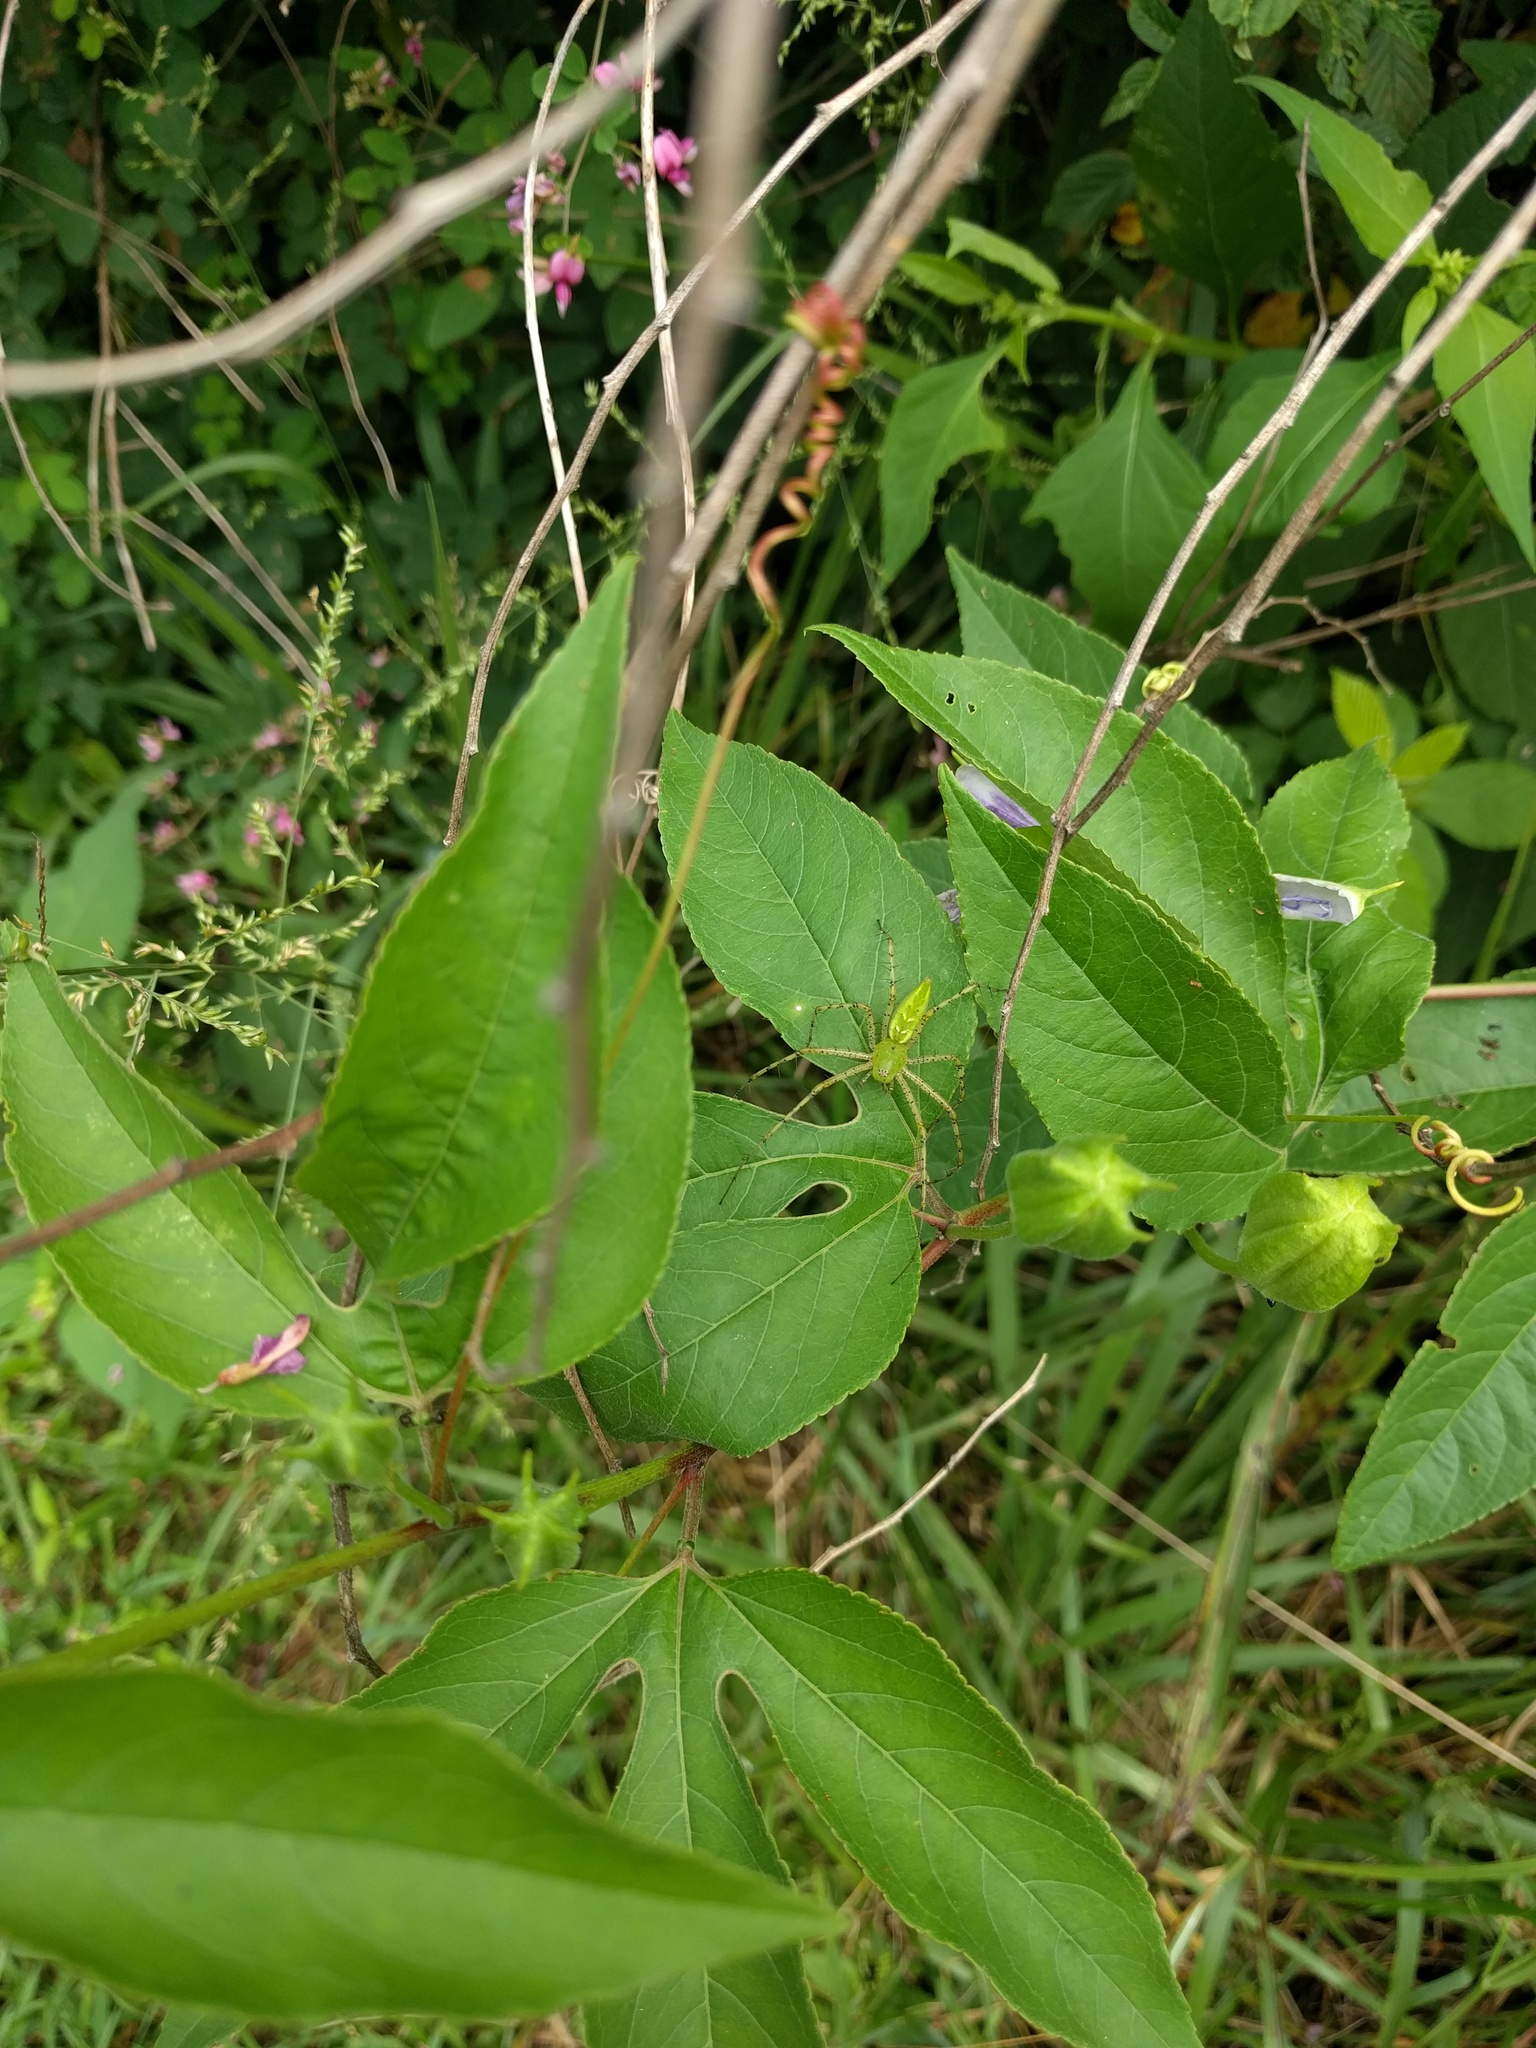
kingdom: Animalia
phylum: Arthropoda
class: Arachnida
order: Araneae
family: Oxyopidae
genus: Peucetia
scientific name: Peucetia viridans
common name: Lynx spiders
